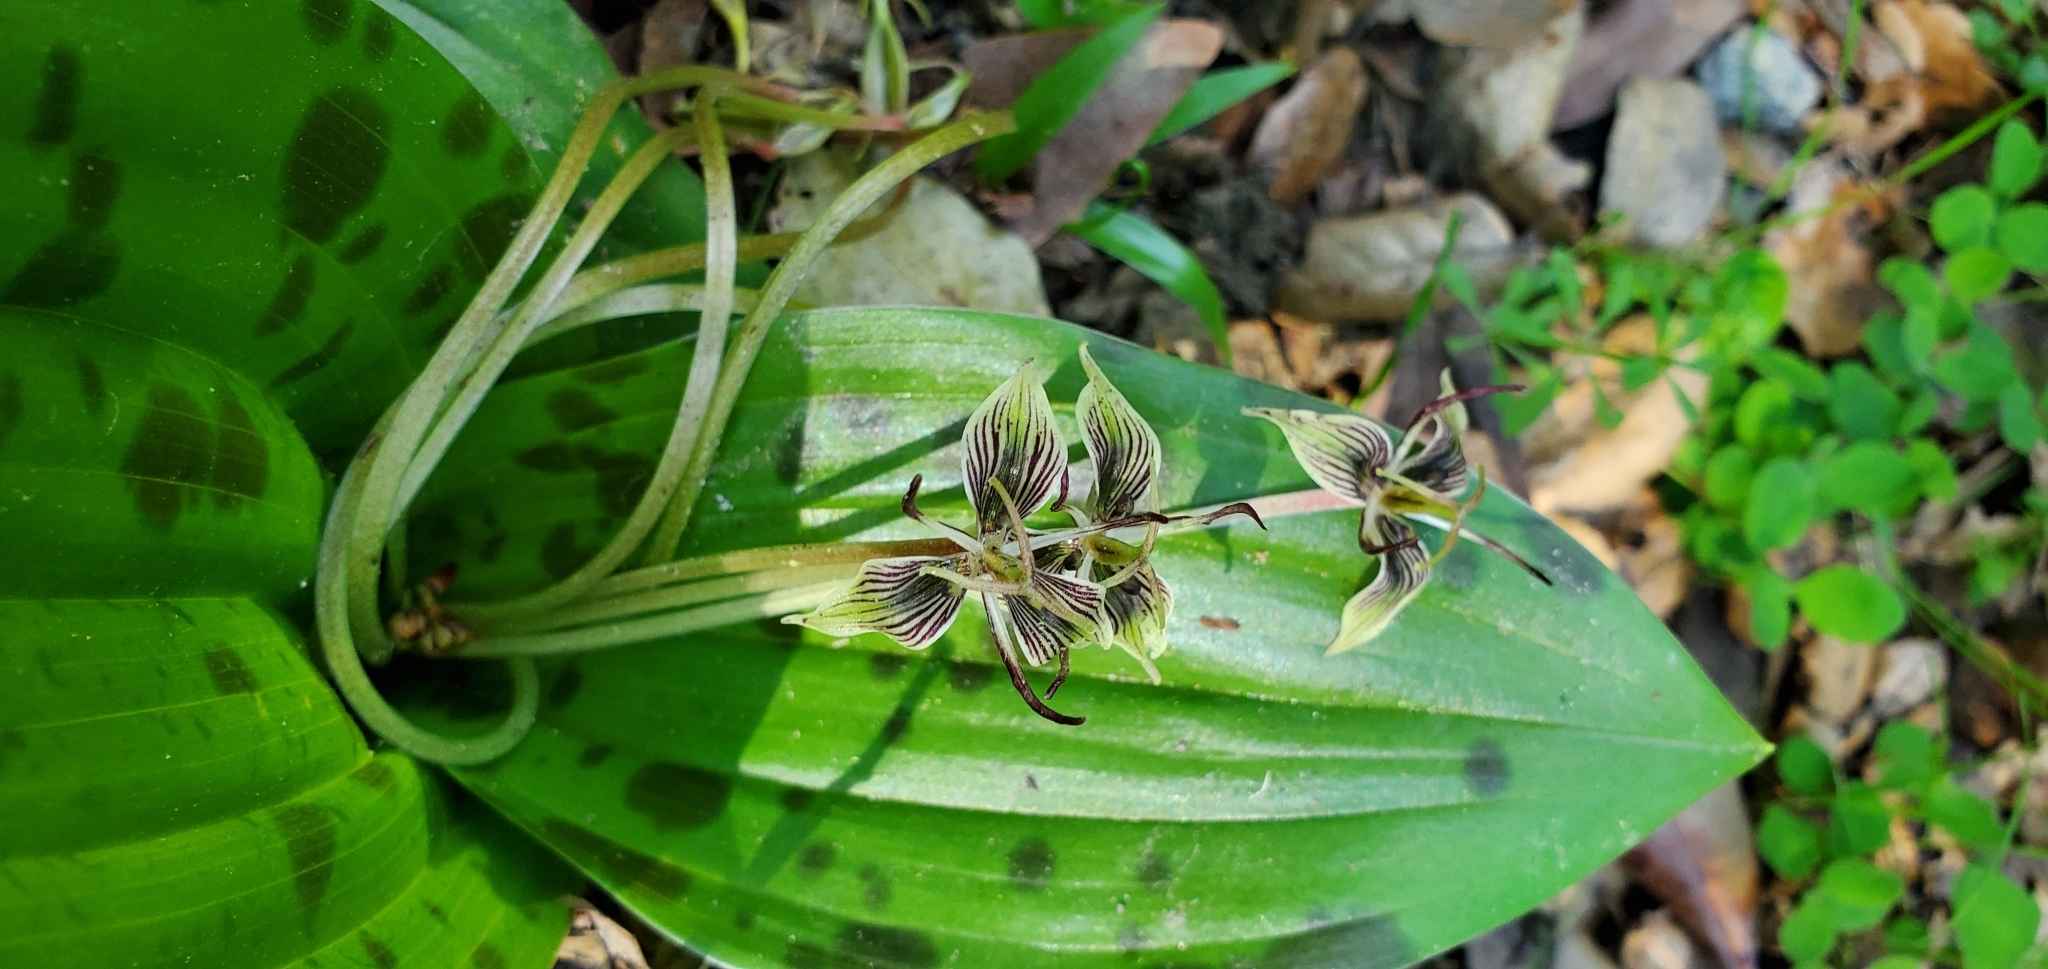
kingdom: Plantae
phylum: Tracheophyta
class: Liliopsida
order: Liliales
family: Liliaceae
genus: Scoliopus
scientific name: Scoliopus bigelovii
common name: Foetid adder's-tongue
